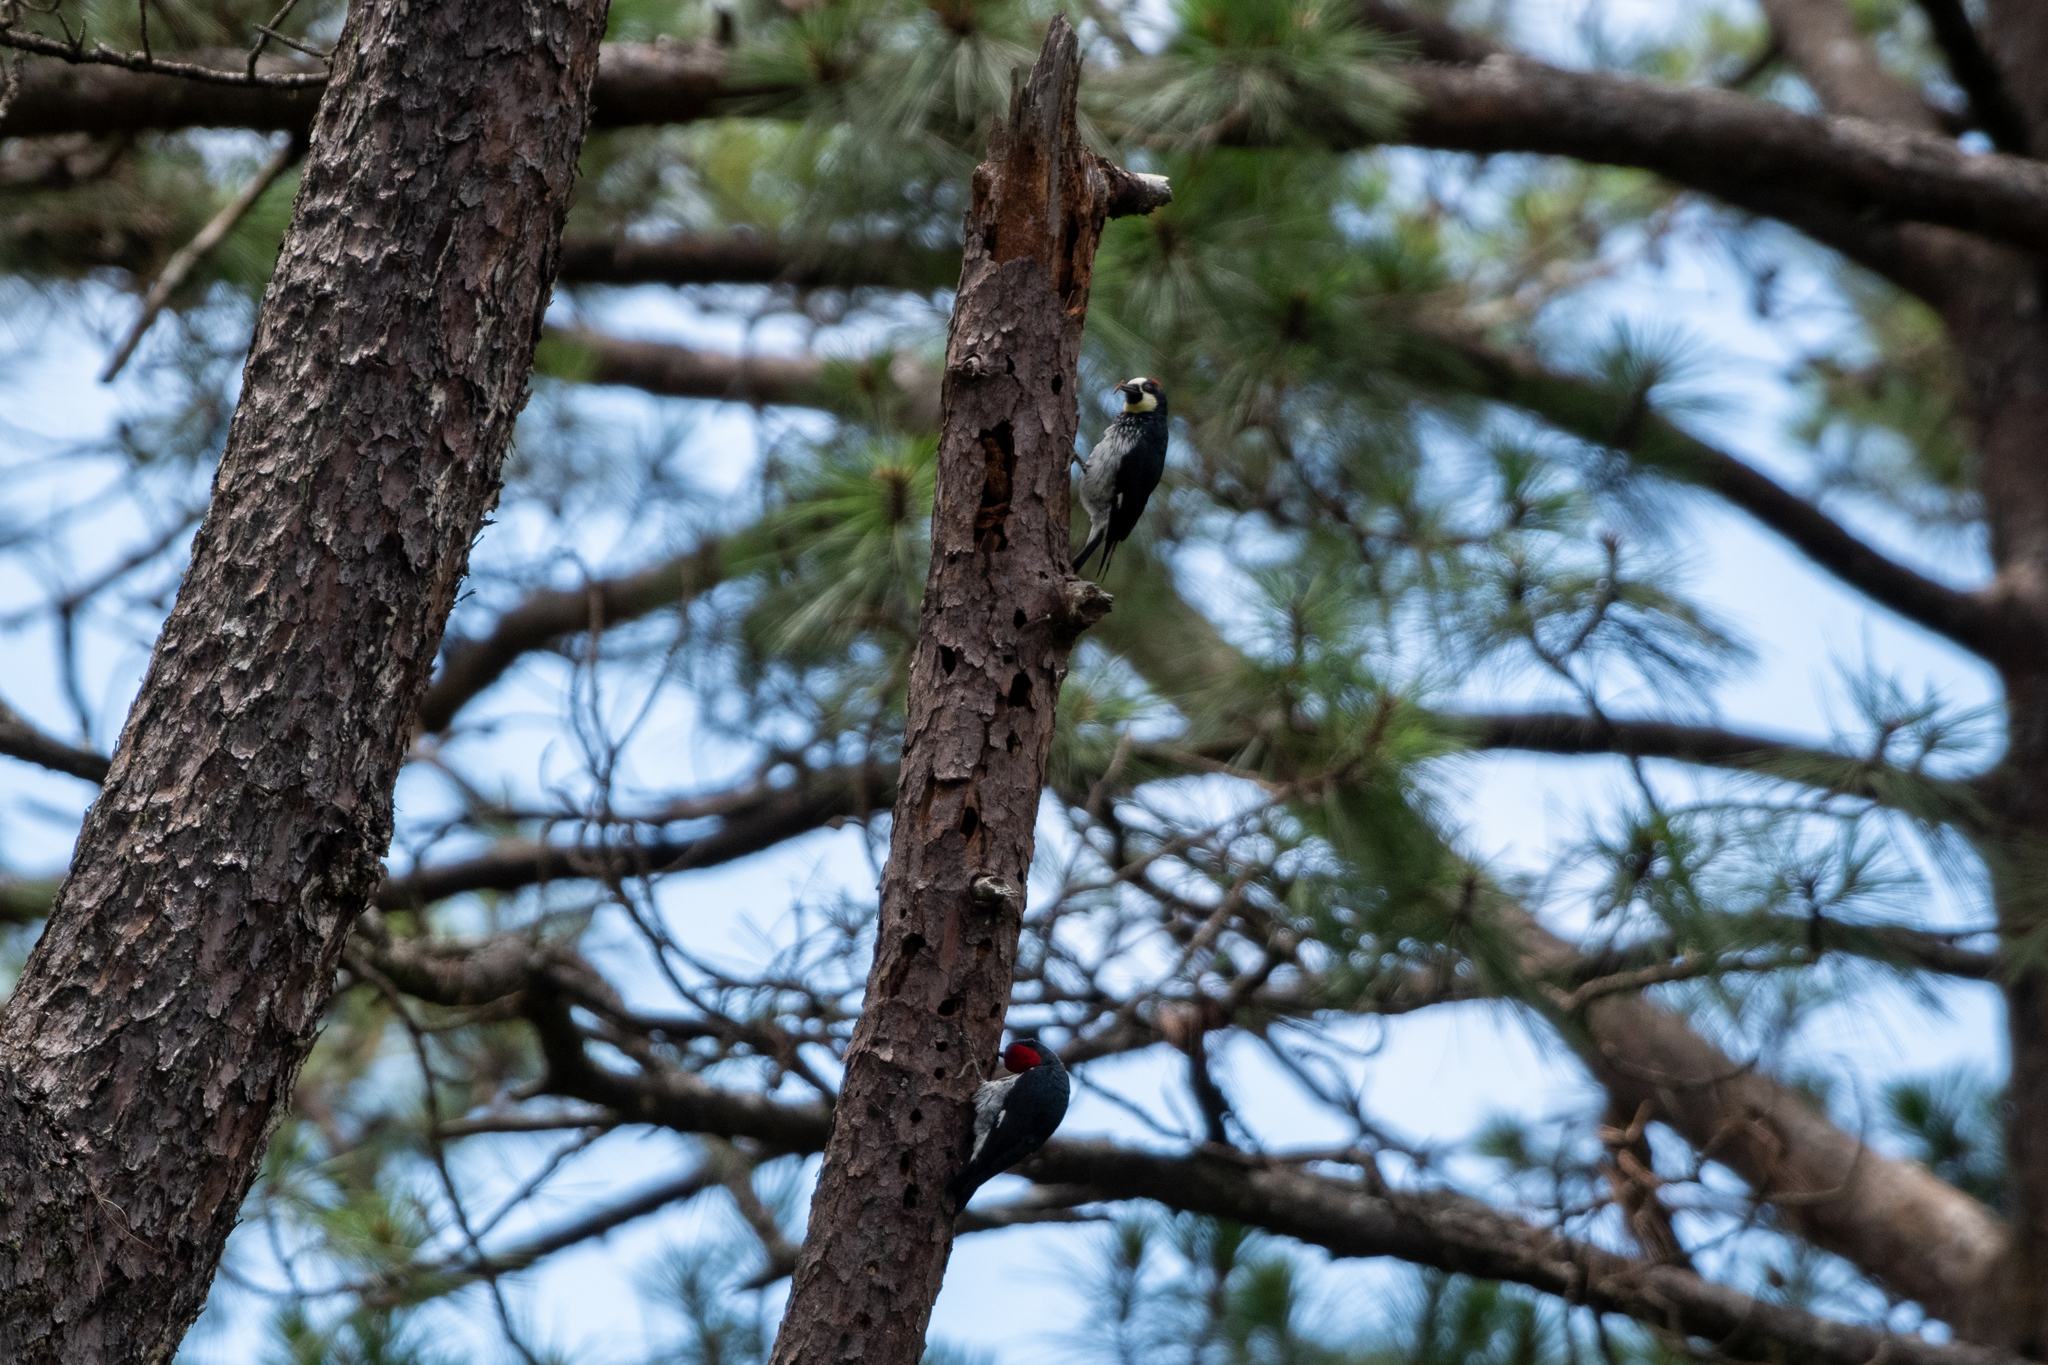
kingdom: Animalia
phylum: Chordata
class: Aves
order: Piciformes
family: Picidae
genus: Melanerpes
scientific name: Melanerpes formicivorus
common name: Acorn woodpecker
